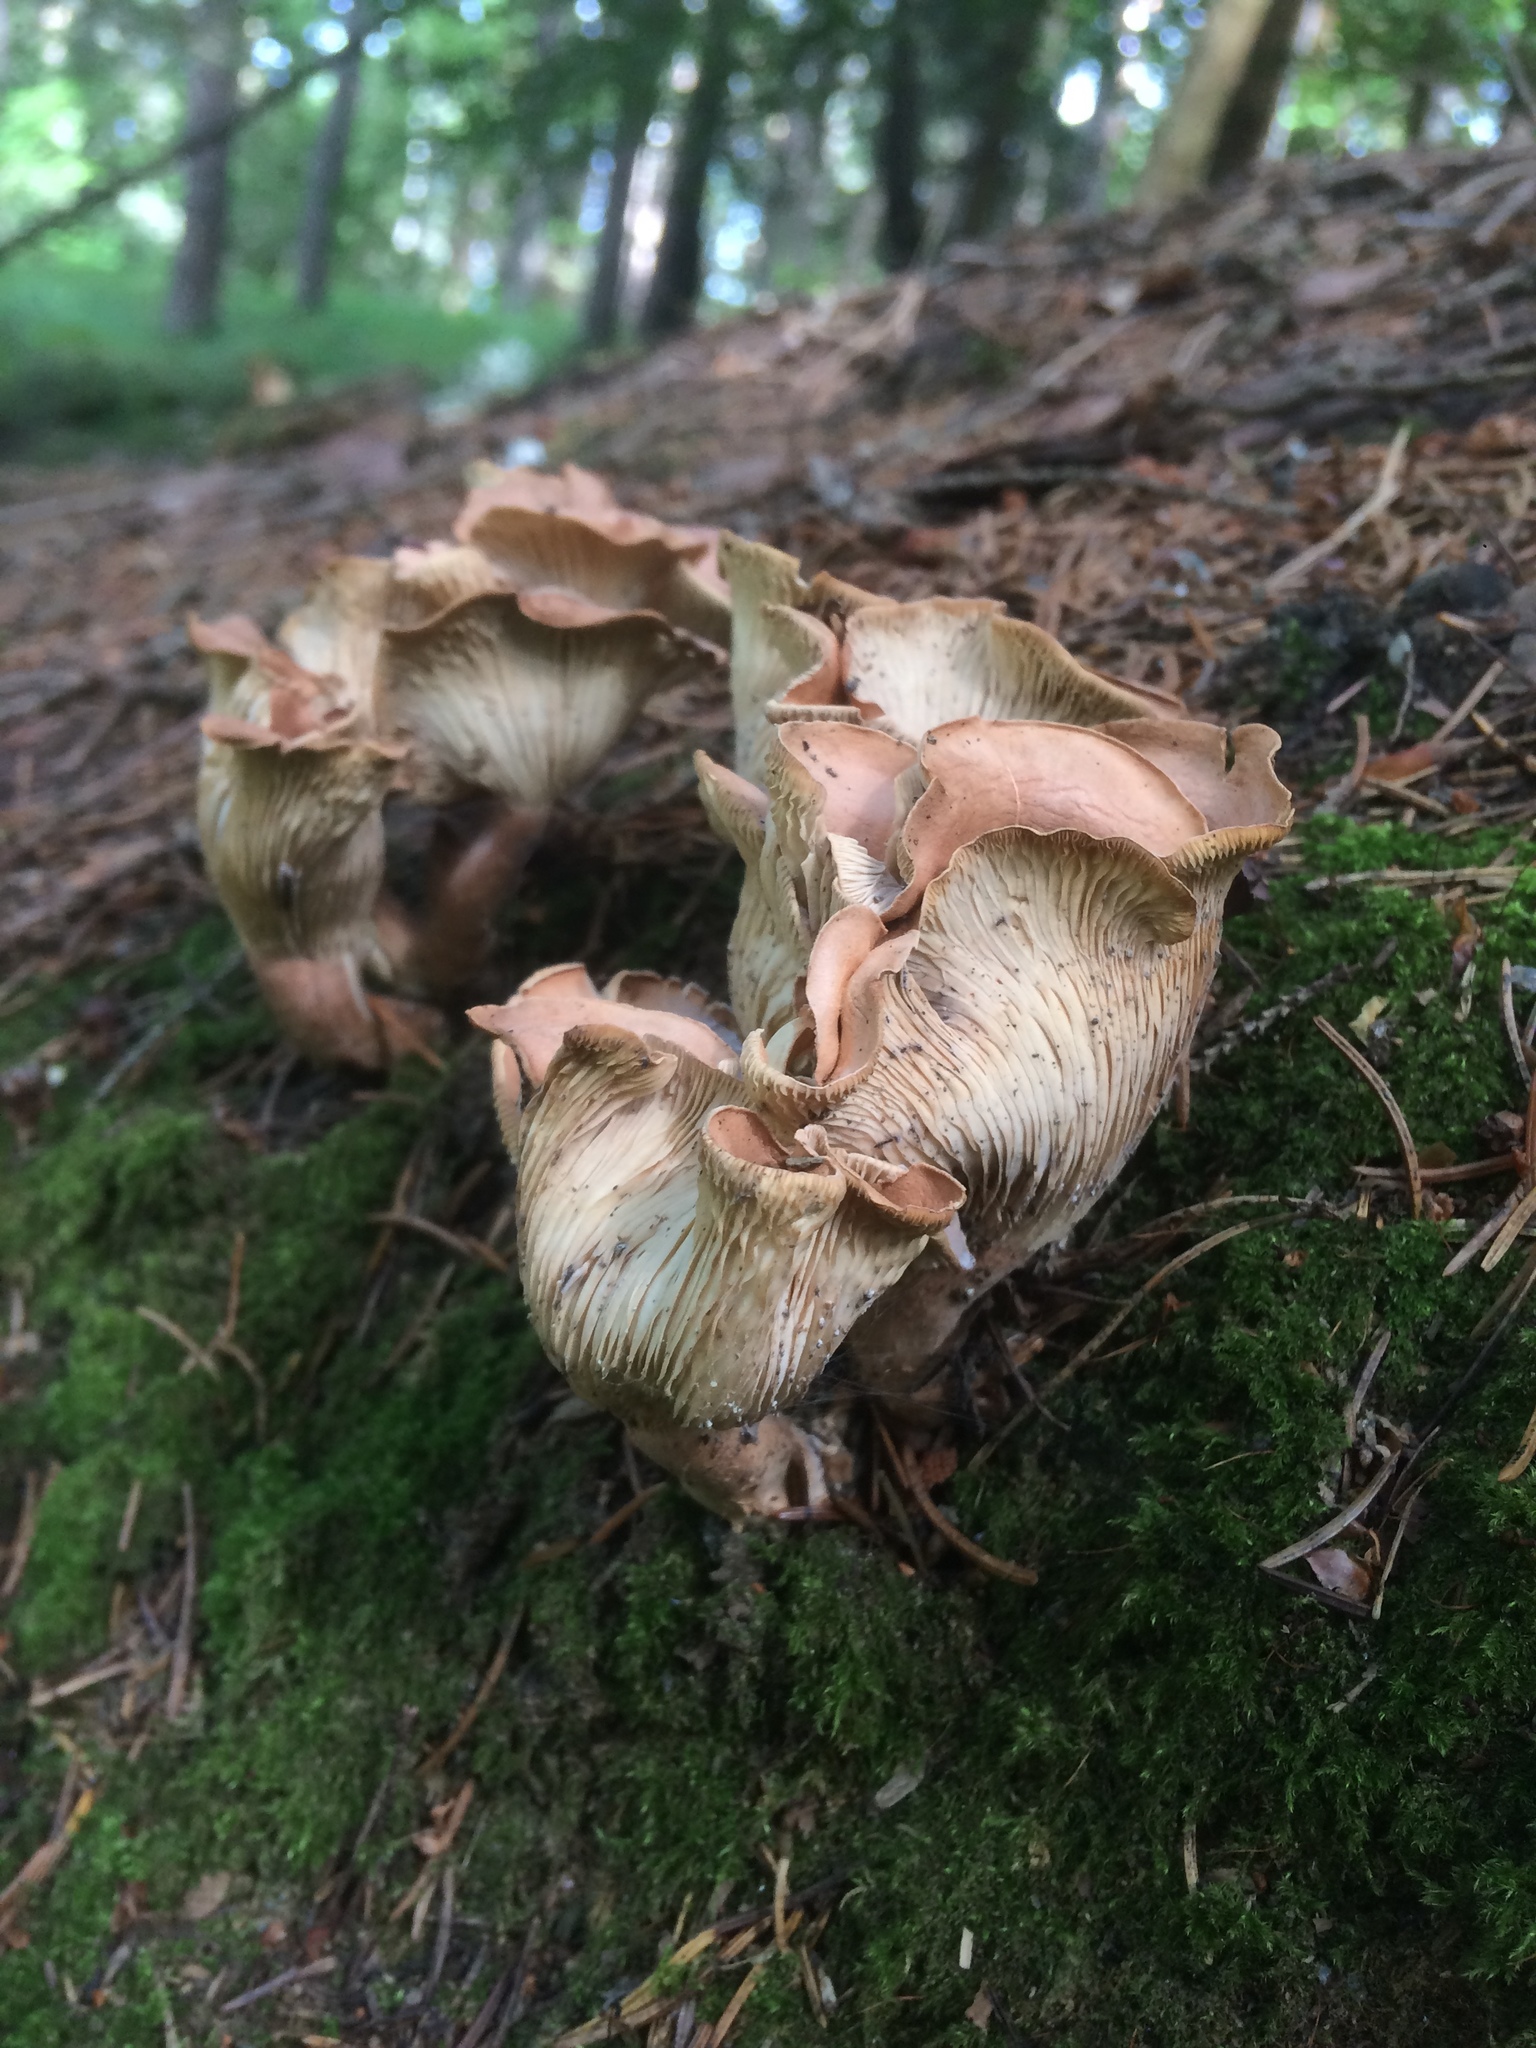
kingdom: Fungi
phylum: Basidiomycota
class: Agaricomycetes
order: Agaricales
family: Omphalotaceae
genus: Rhodocollybia
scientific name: Rhodocollybia filamentosa
